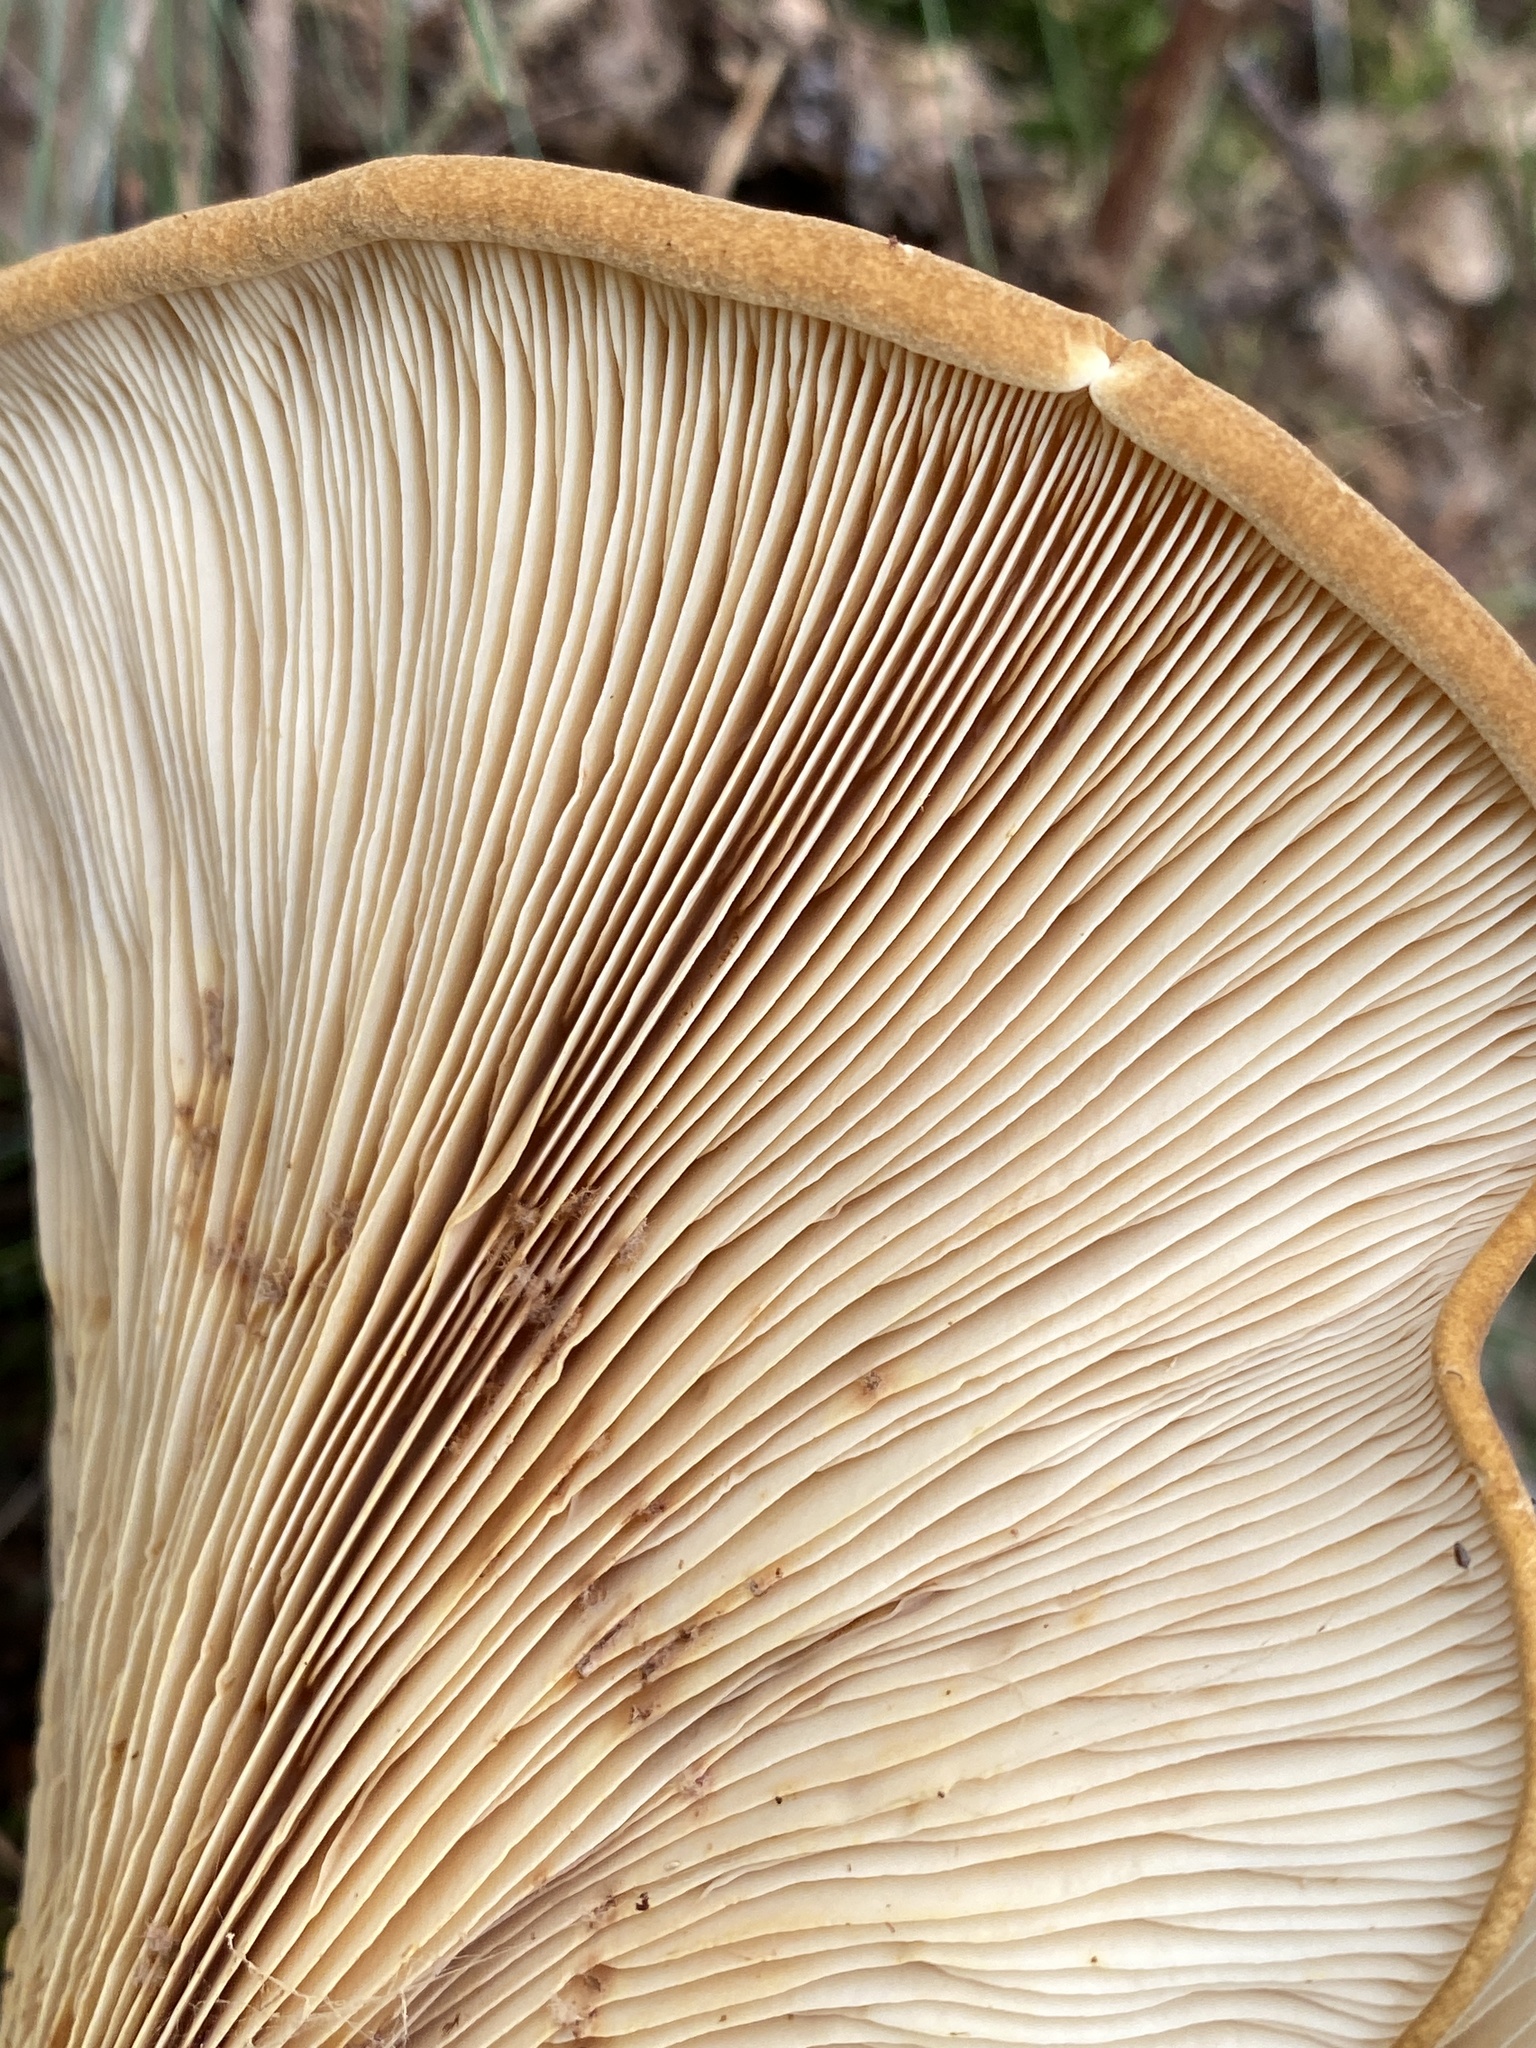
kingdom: Fungi
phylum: Basidiomycota
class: Agaricomycetes
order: Boletales
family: Tapinellaceae
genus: Tapinella
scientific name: Tapinella atrotomentosa
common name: Velvet rollrim
